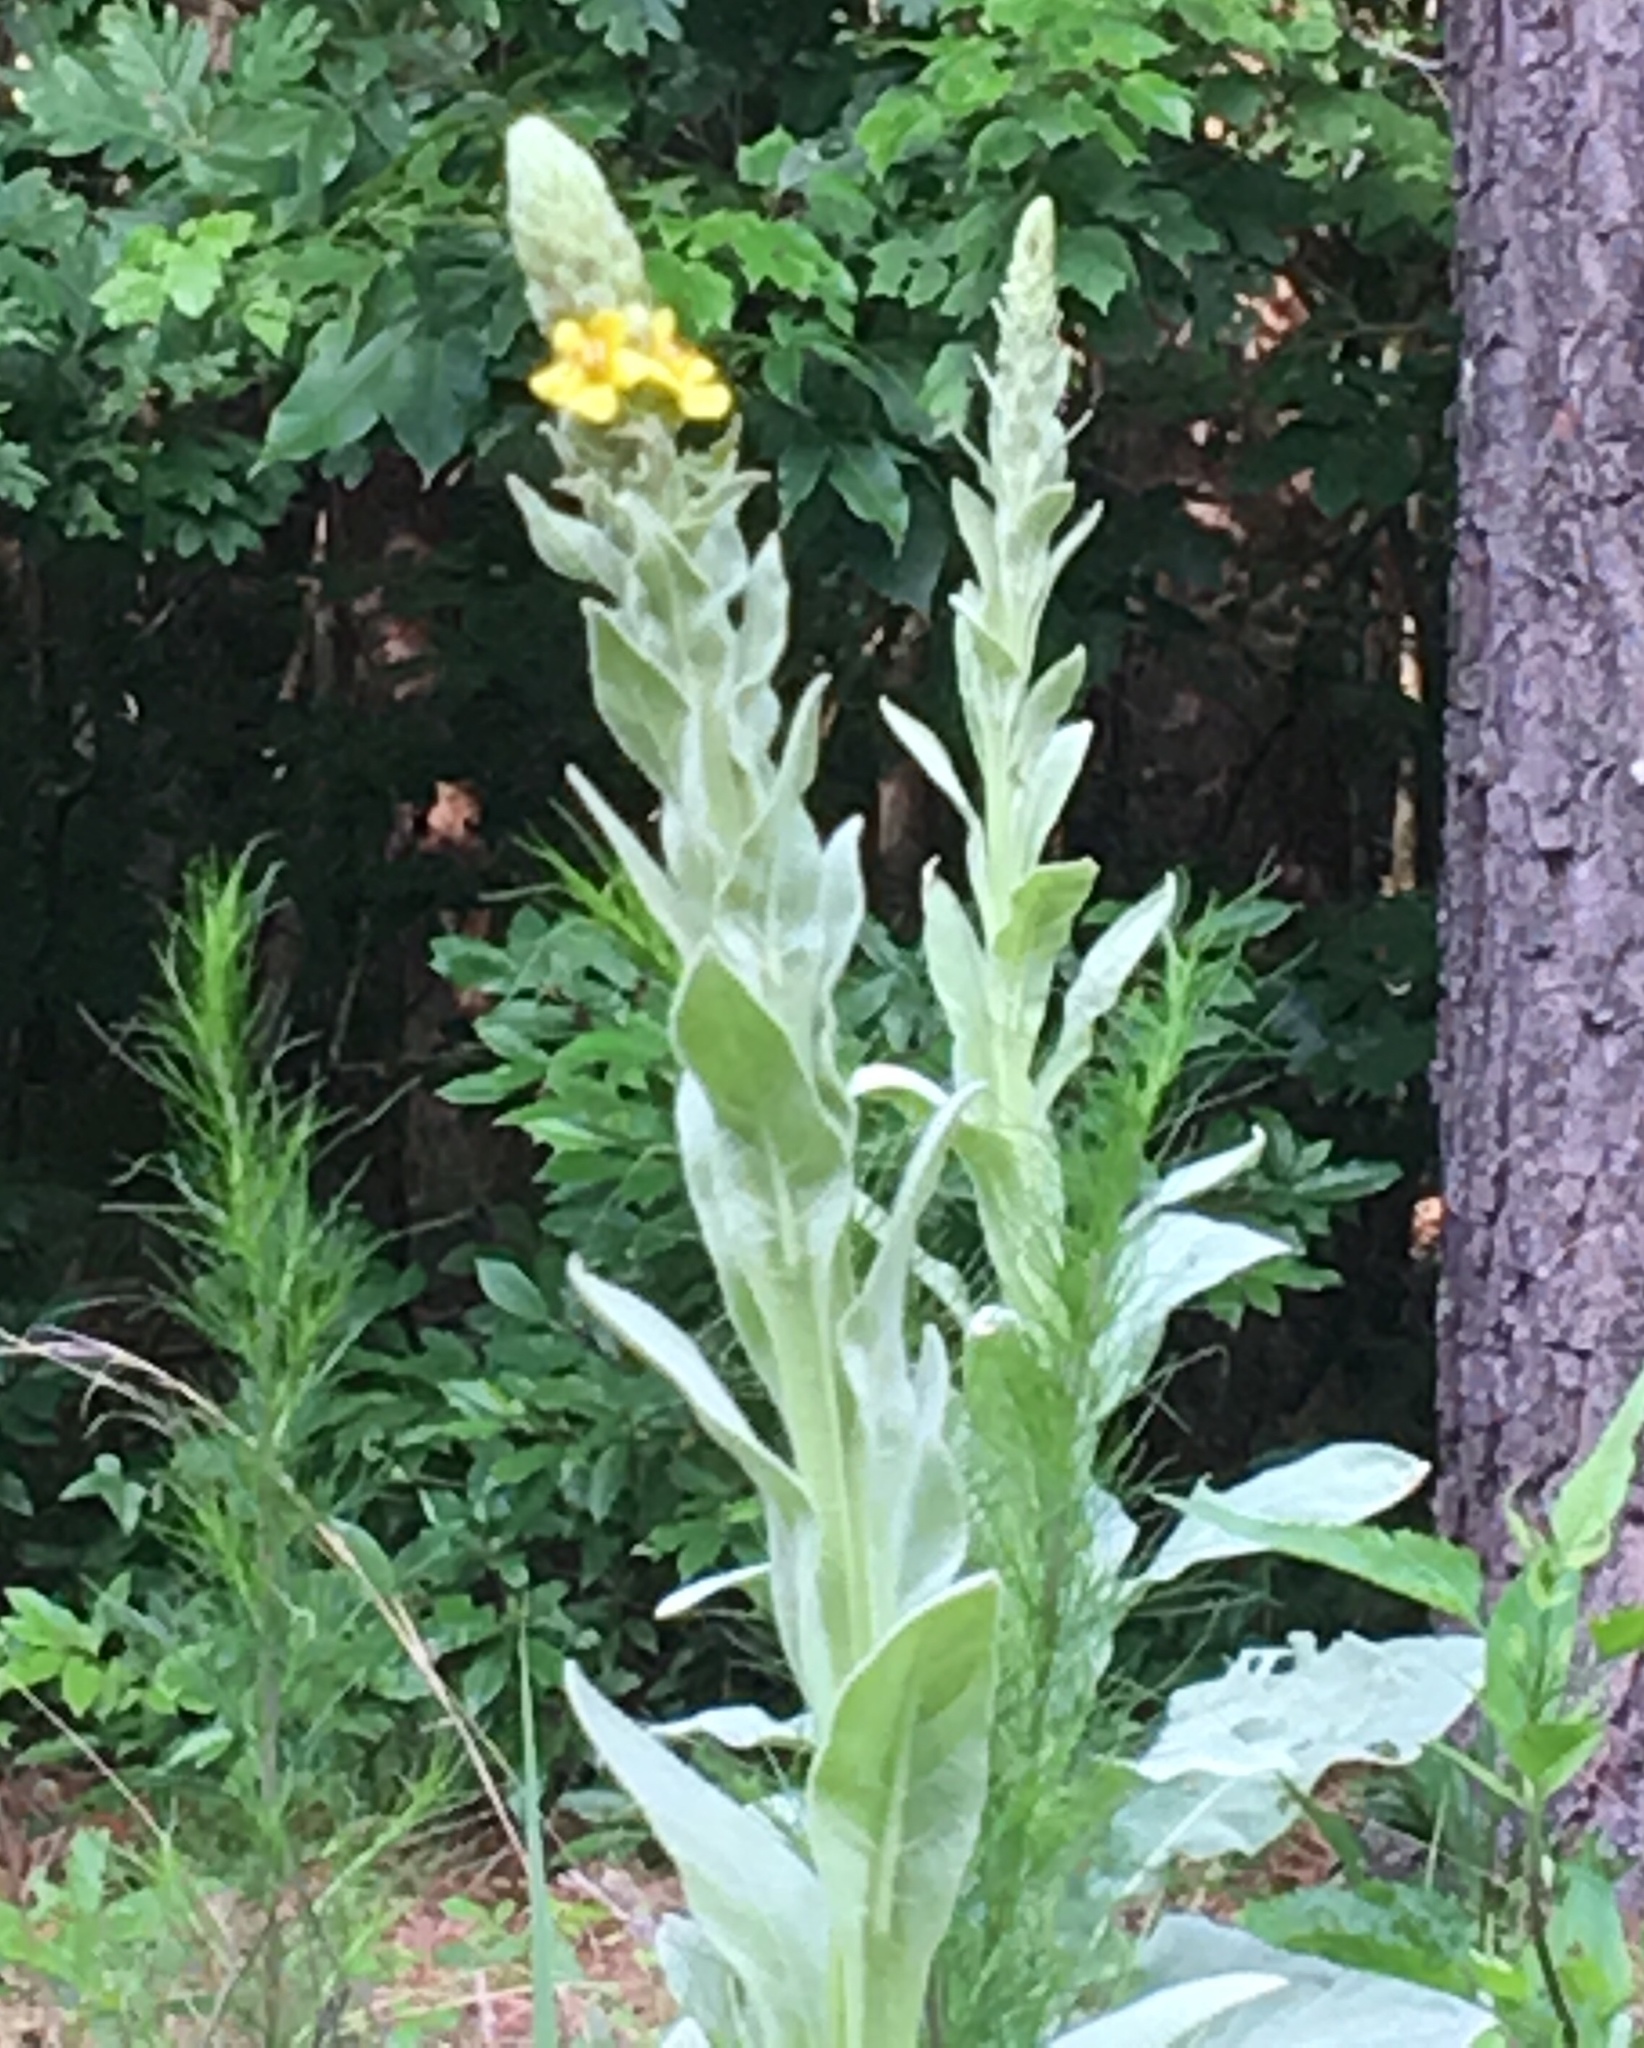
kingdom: Plantae
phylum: Tracheophyta
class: Magnoliopsida
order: Lamiales
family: Scrophulariaceae
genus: Verbascum
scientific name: Verbascum thapsus
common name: Common mullein
